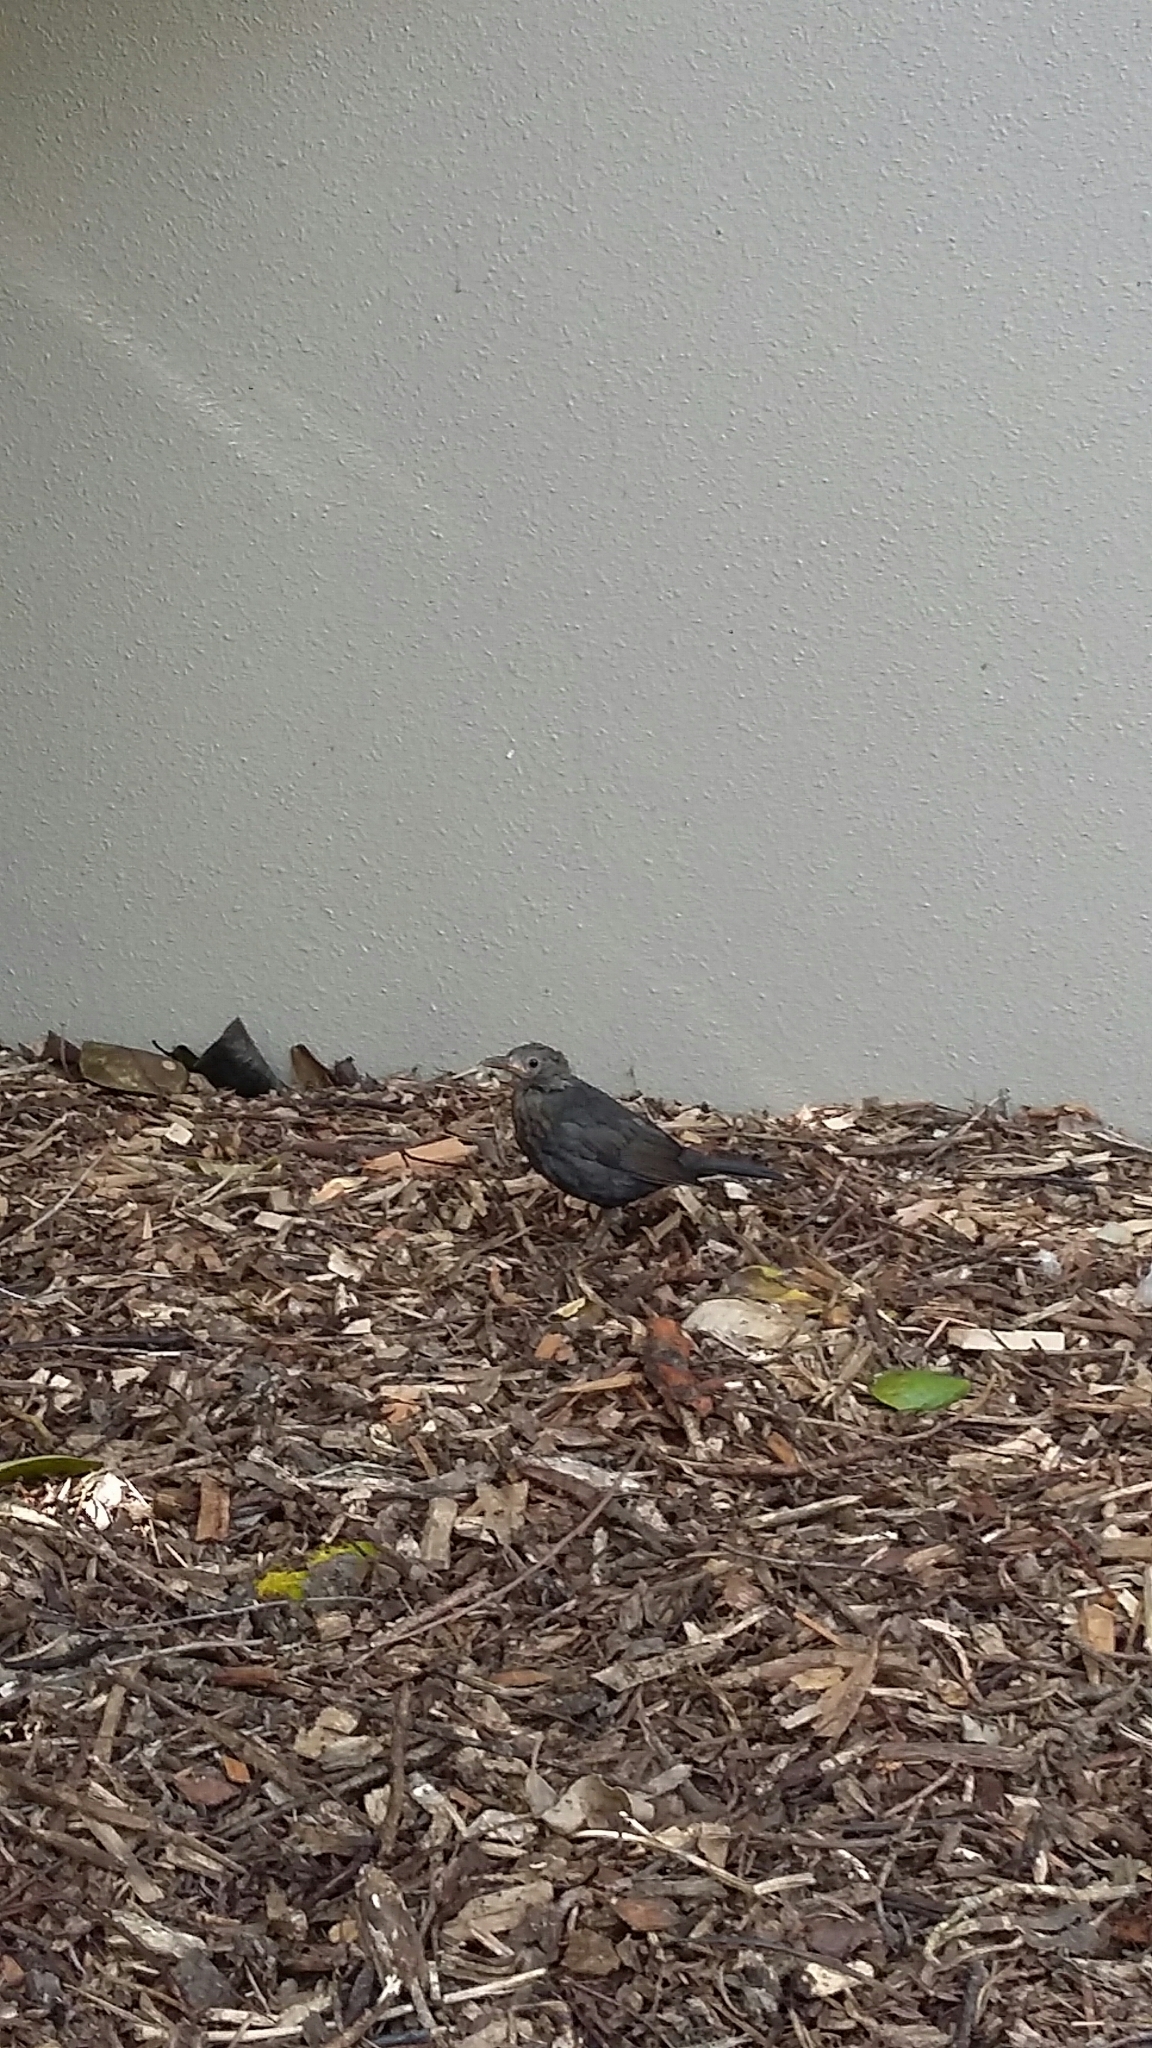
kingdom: Animalia
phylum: Chordata
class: Aves
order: Passeriformes
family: Turdidae
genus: Turdus
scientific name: Turdus merula
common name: Common blackbird
